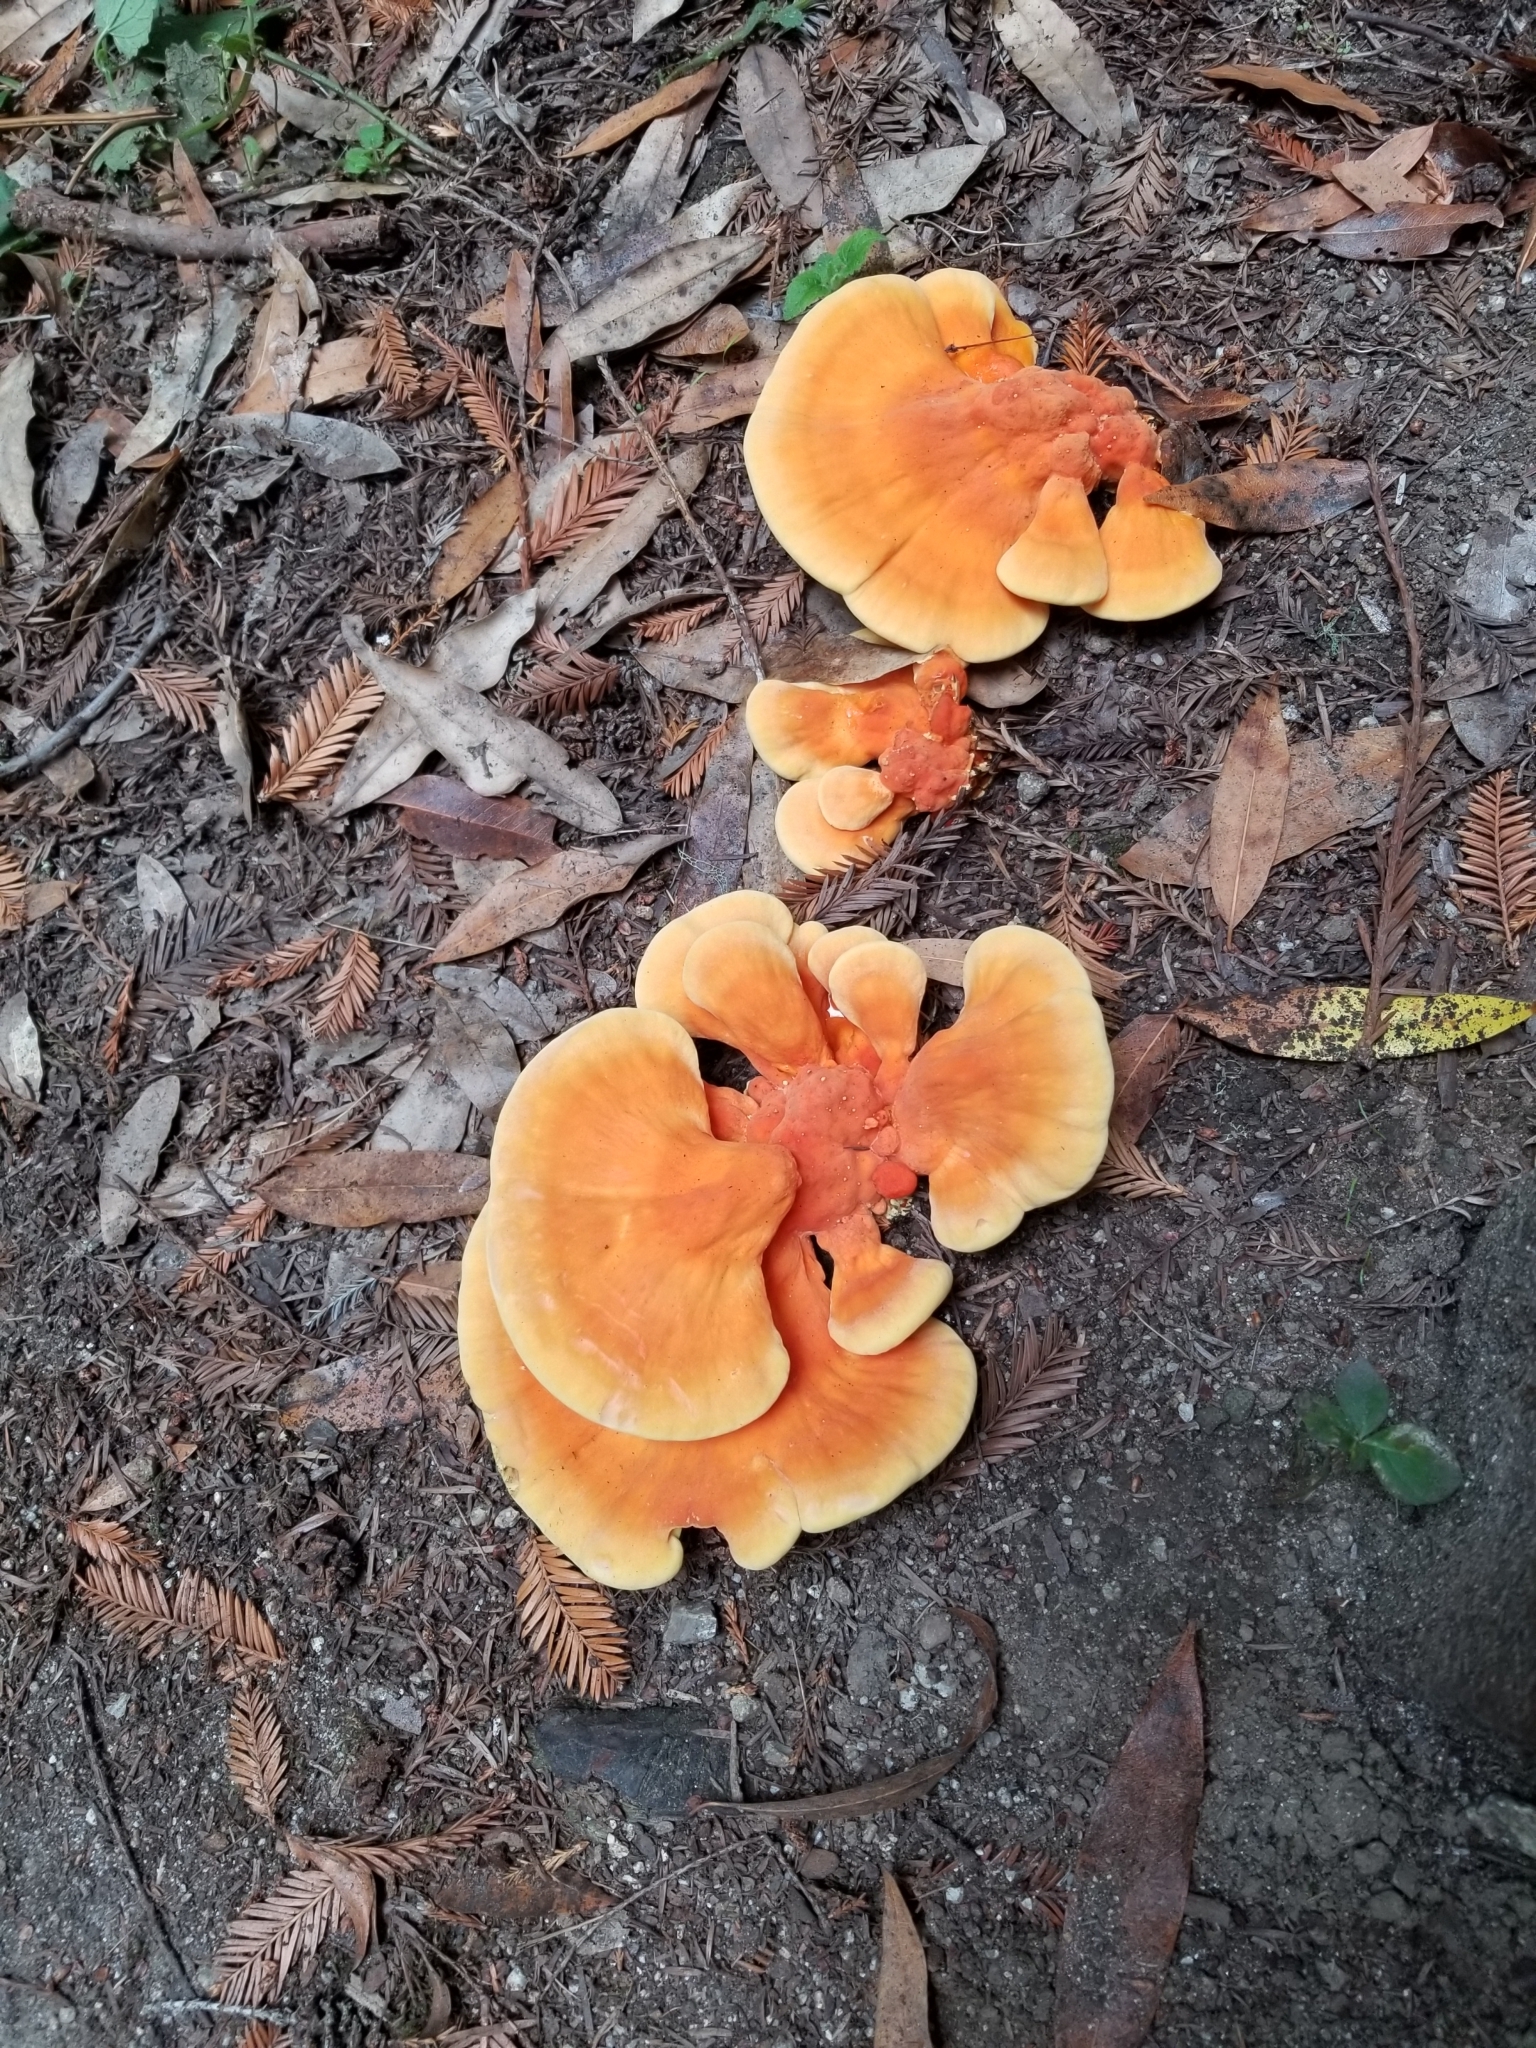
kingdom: Fungi
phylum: Basidiomycota
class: Agaricomycetes
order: Polyporales
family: Laetiporaceae
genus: Laetiporus
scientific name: Laetiporus gilbertsonii
